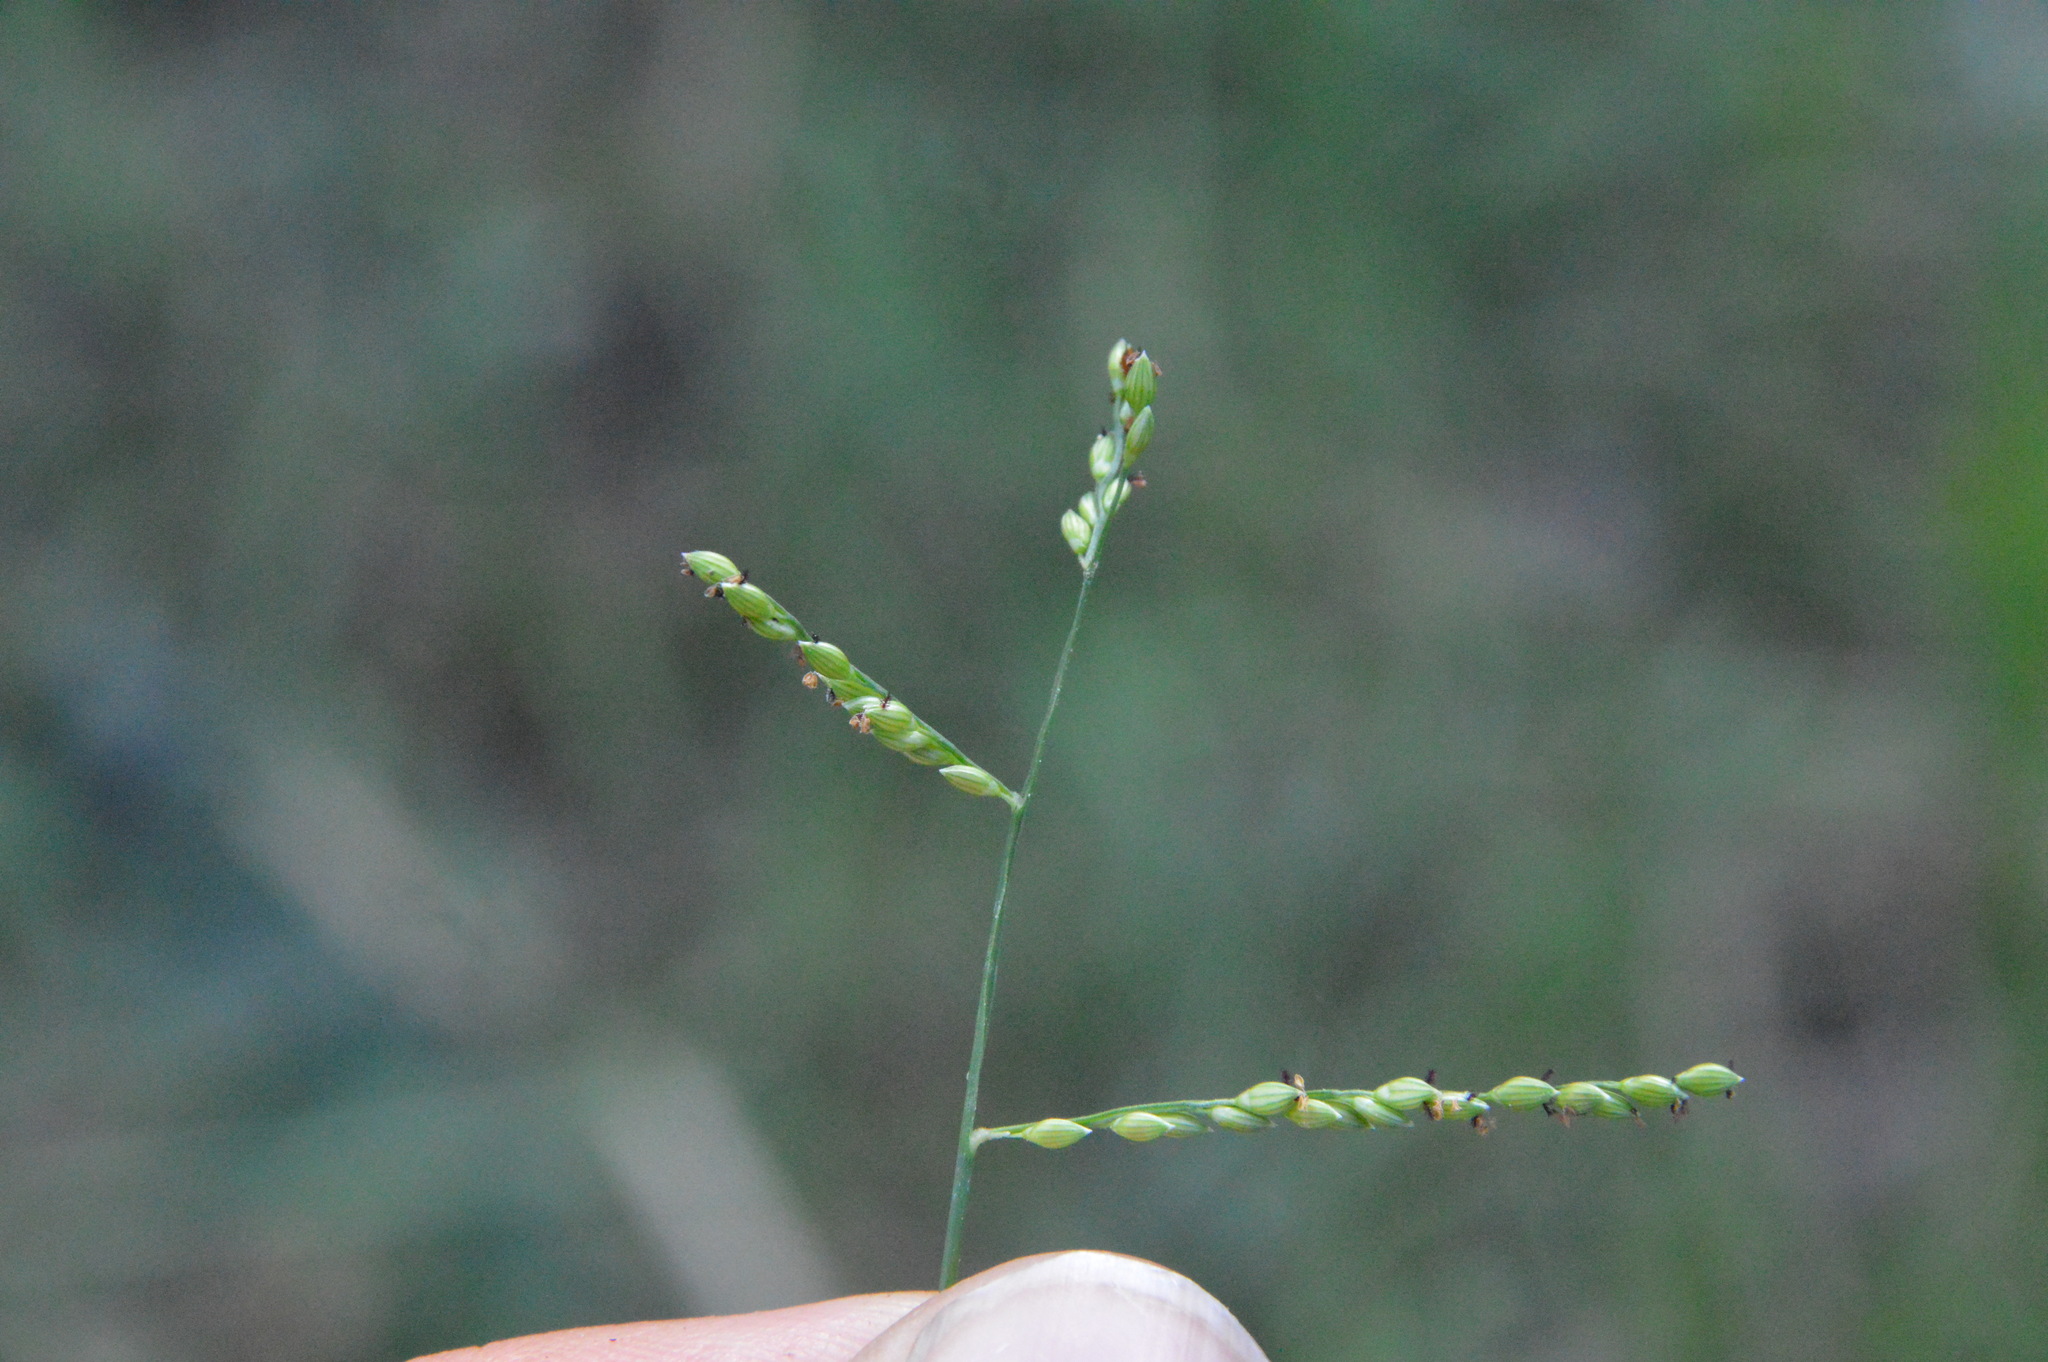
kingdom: Plantae
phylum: Tracheophyta
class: Liliopsida
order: Poales
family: Poaceae
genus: Urochloa
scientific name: Urochloa reptans
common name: Sprawling signalgrass
